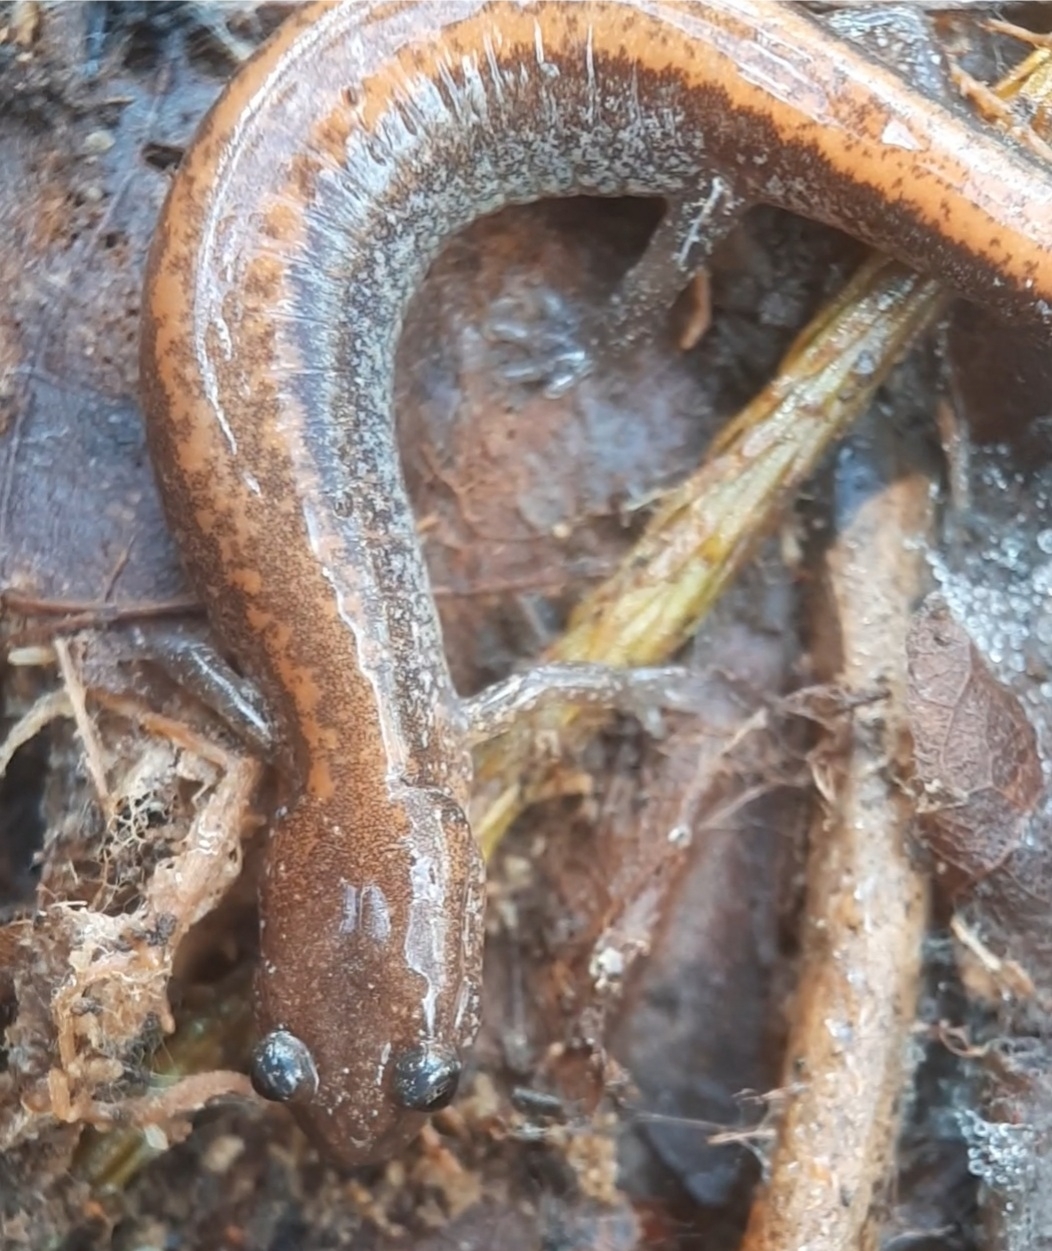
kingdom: Animalia
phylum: Chordata
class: Amphibia
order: Caudata
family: Plethodontidae
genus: Plethodon
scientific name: Plethodon cinereus
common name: Redback salamander
